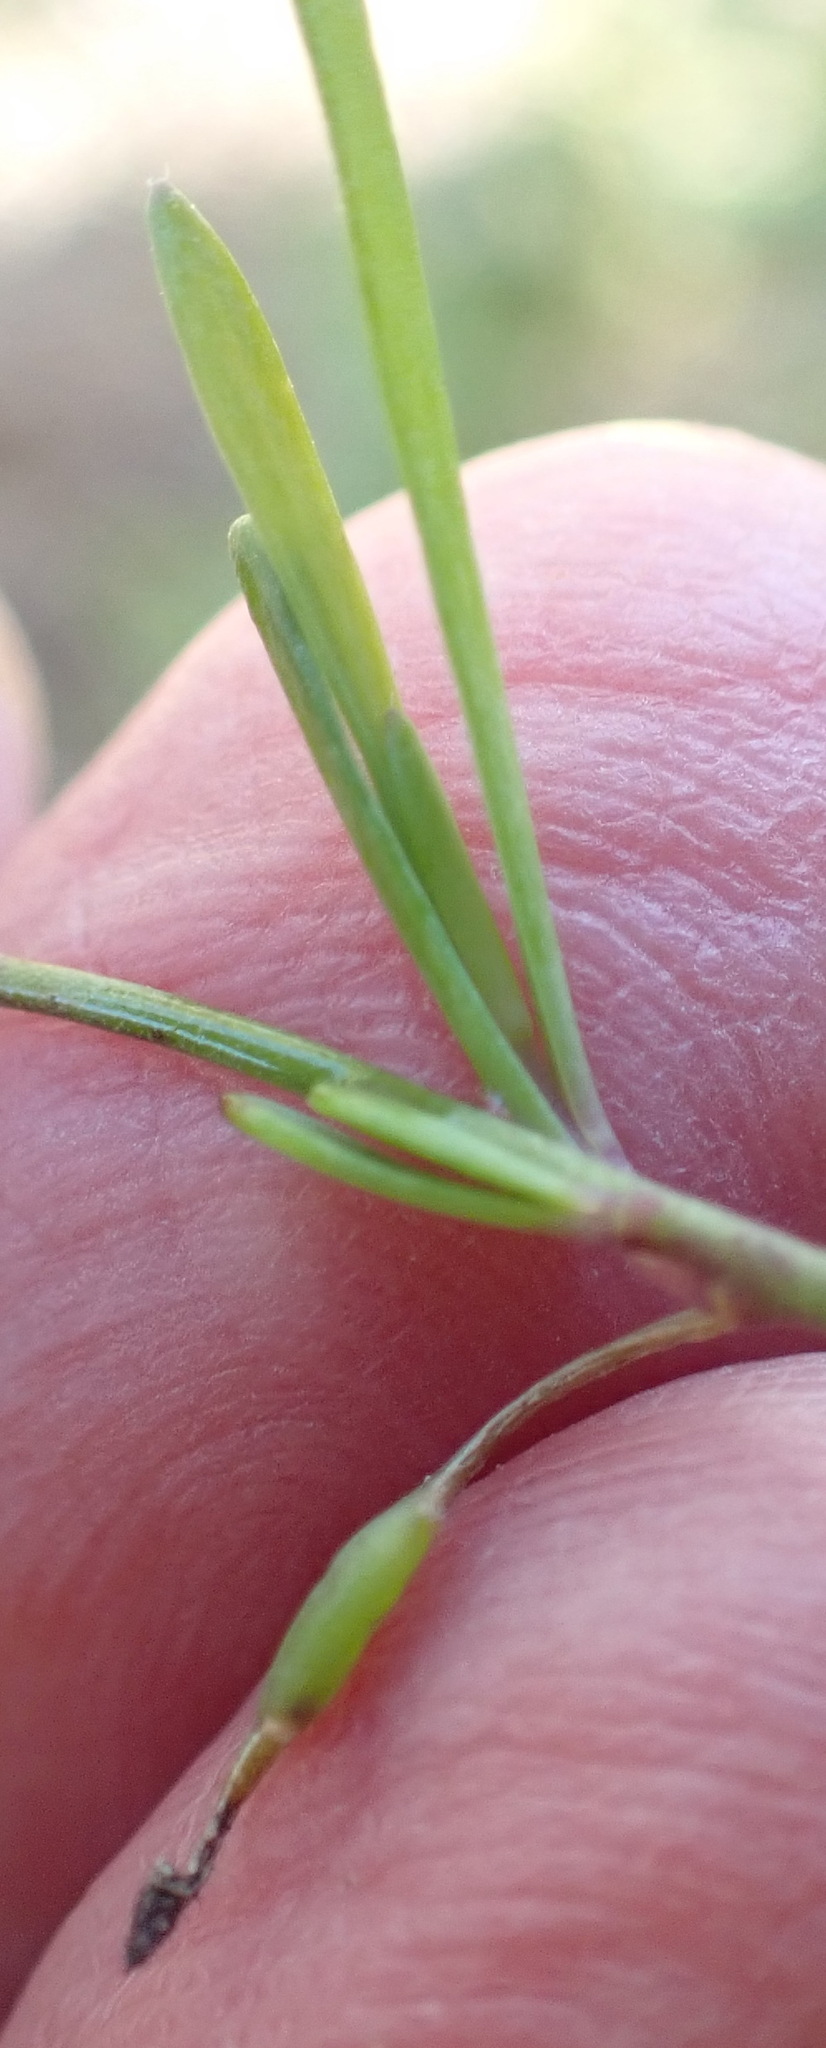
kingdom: Plantae
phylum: Tracheophyta
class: Magnoliopsida
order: Brassicales
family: Brassicaceae
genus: Heliophila
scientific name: Heliophila linearis
